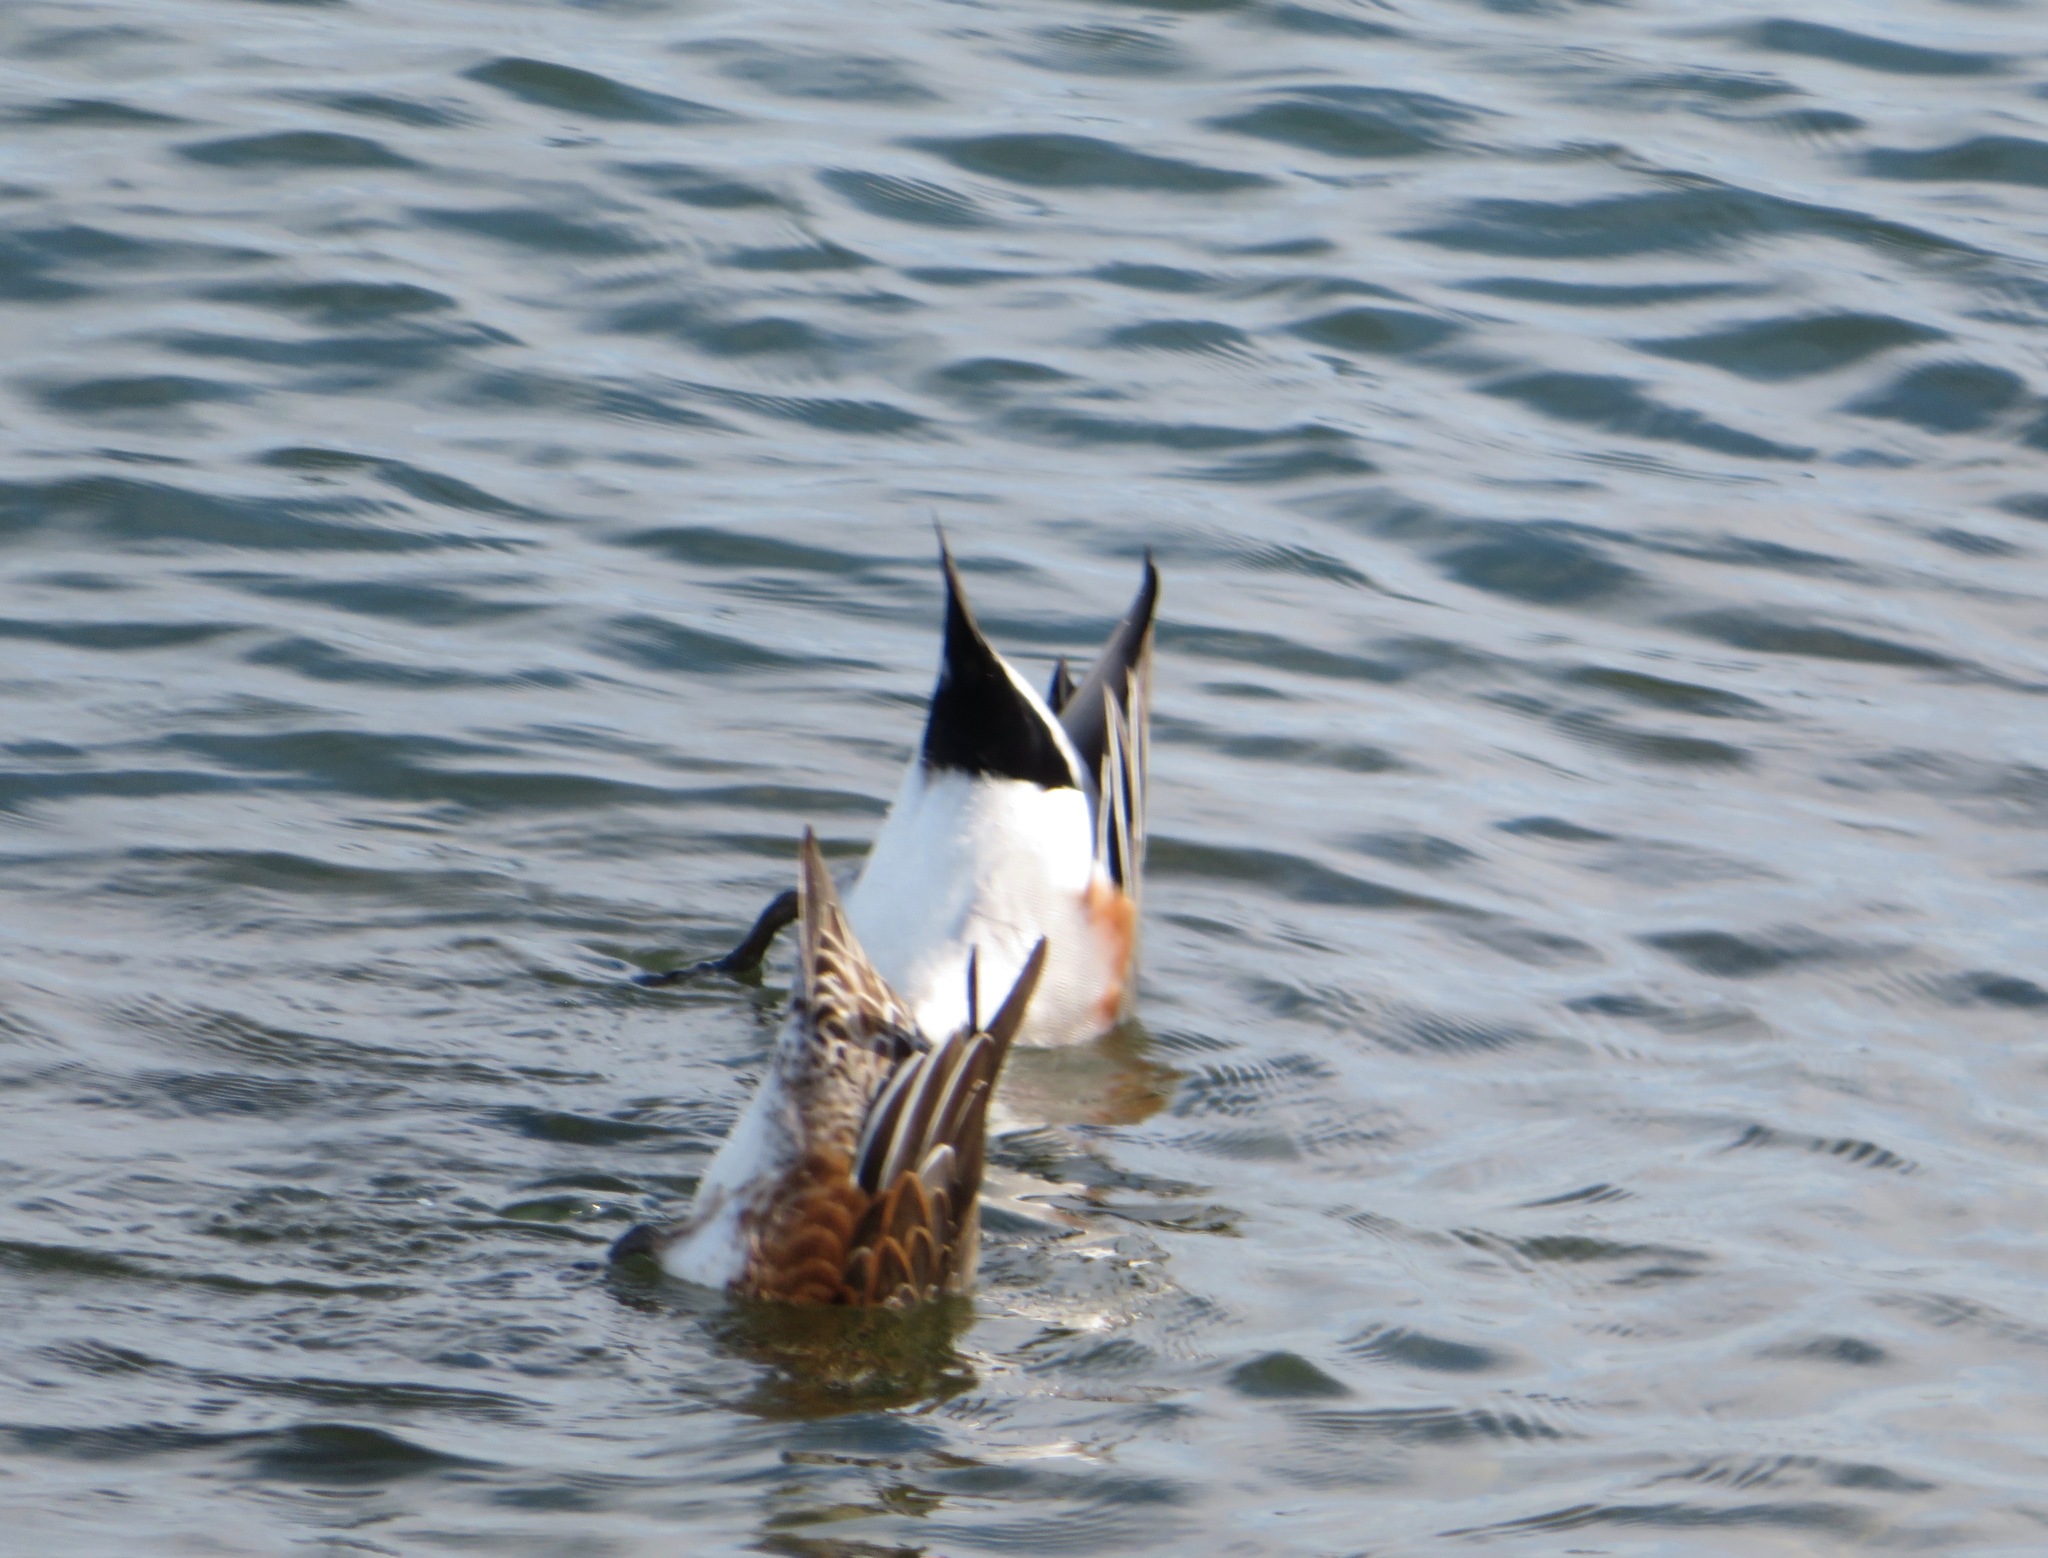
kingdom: Animalia
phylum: Chordata
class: Aves
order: Anseriformes
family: Anatidae
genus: Mareca
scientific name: Mareca penelope
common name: Eurasian wigeon
